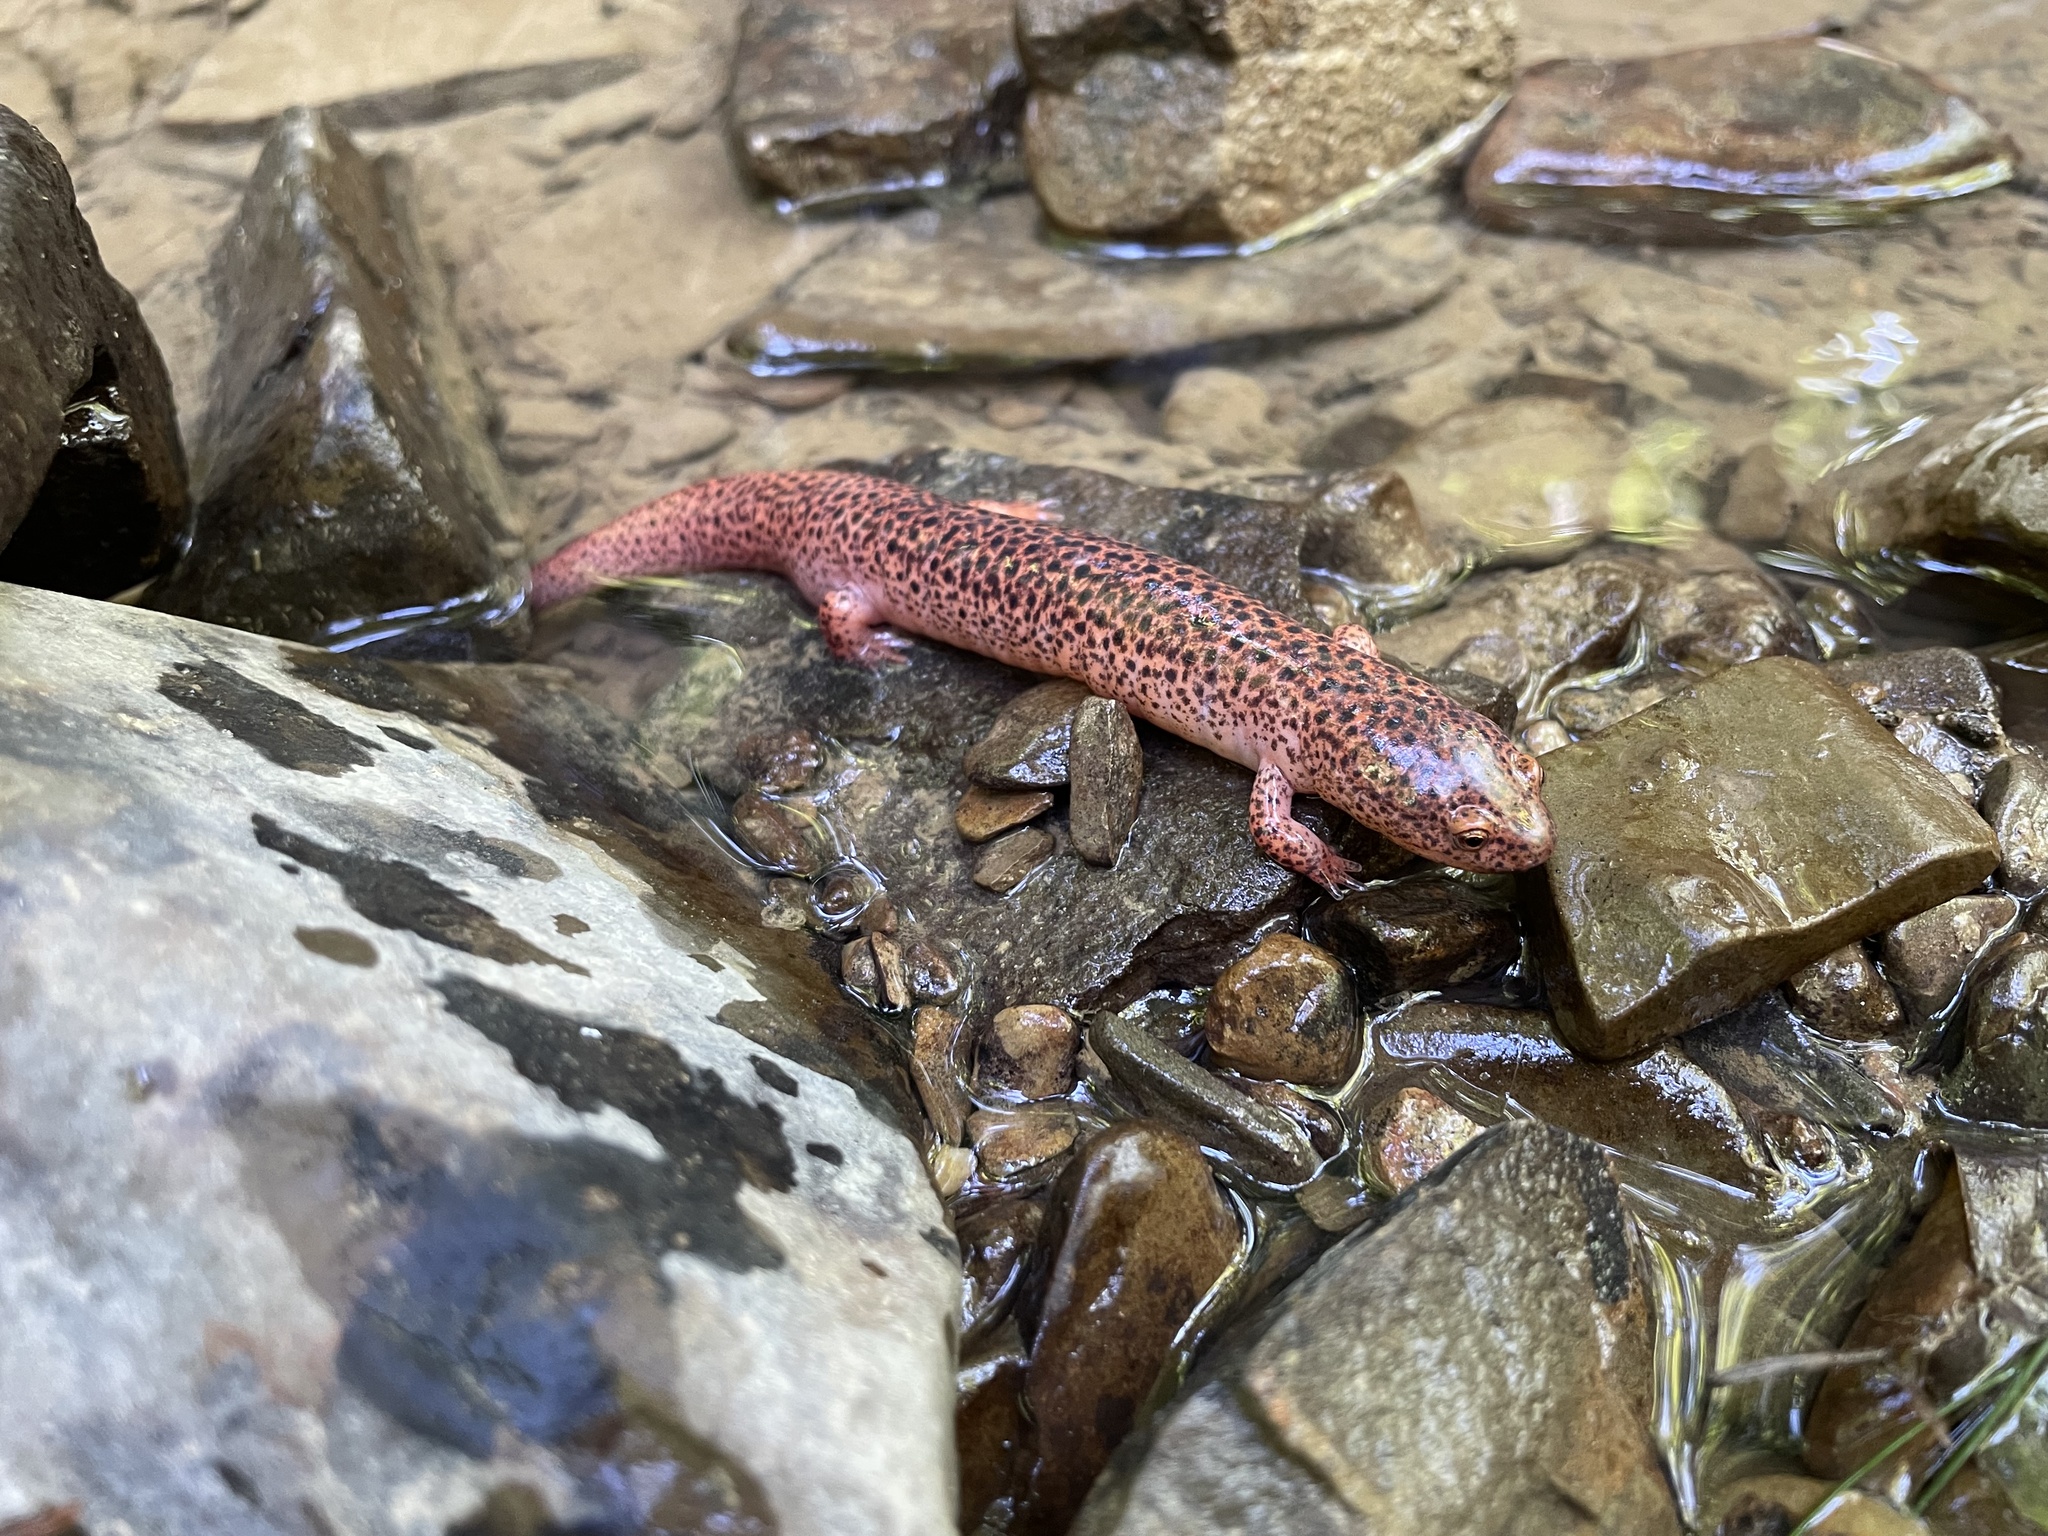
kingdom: Animalia
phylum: Chordata
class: Amphibia
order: Caudata
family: Plethodontidae
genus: Pseudotriton
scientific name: Pseudotriton ruber
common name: Red salamander
